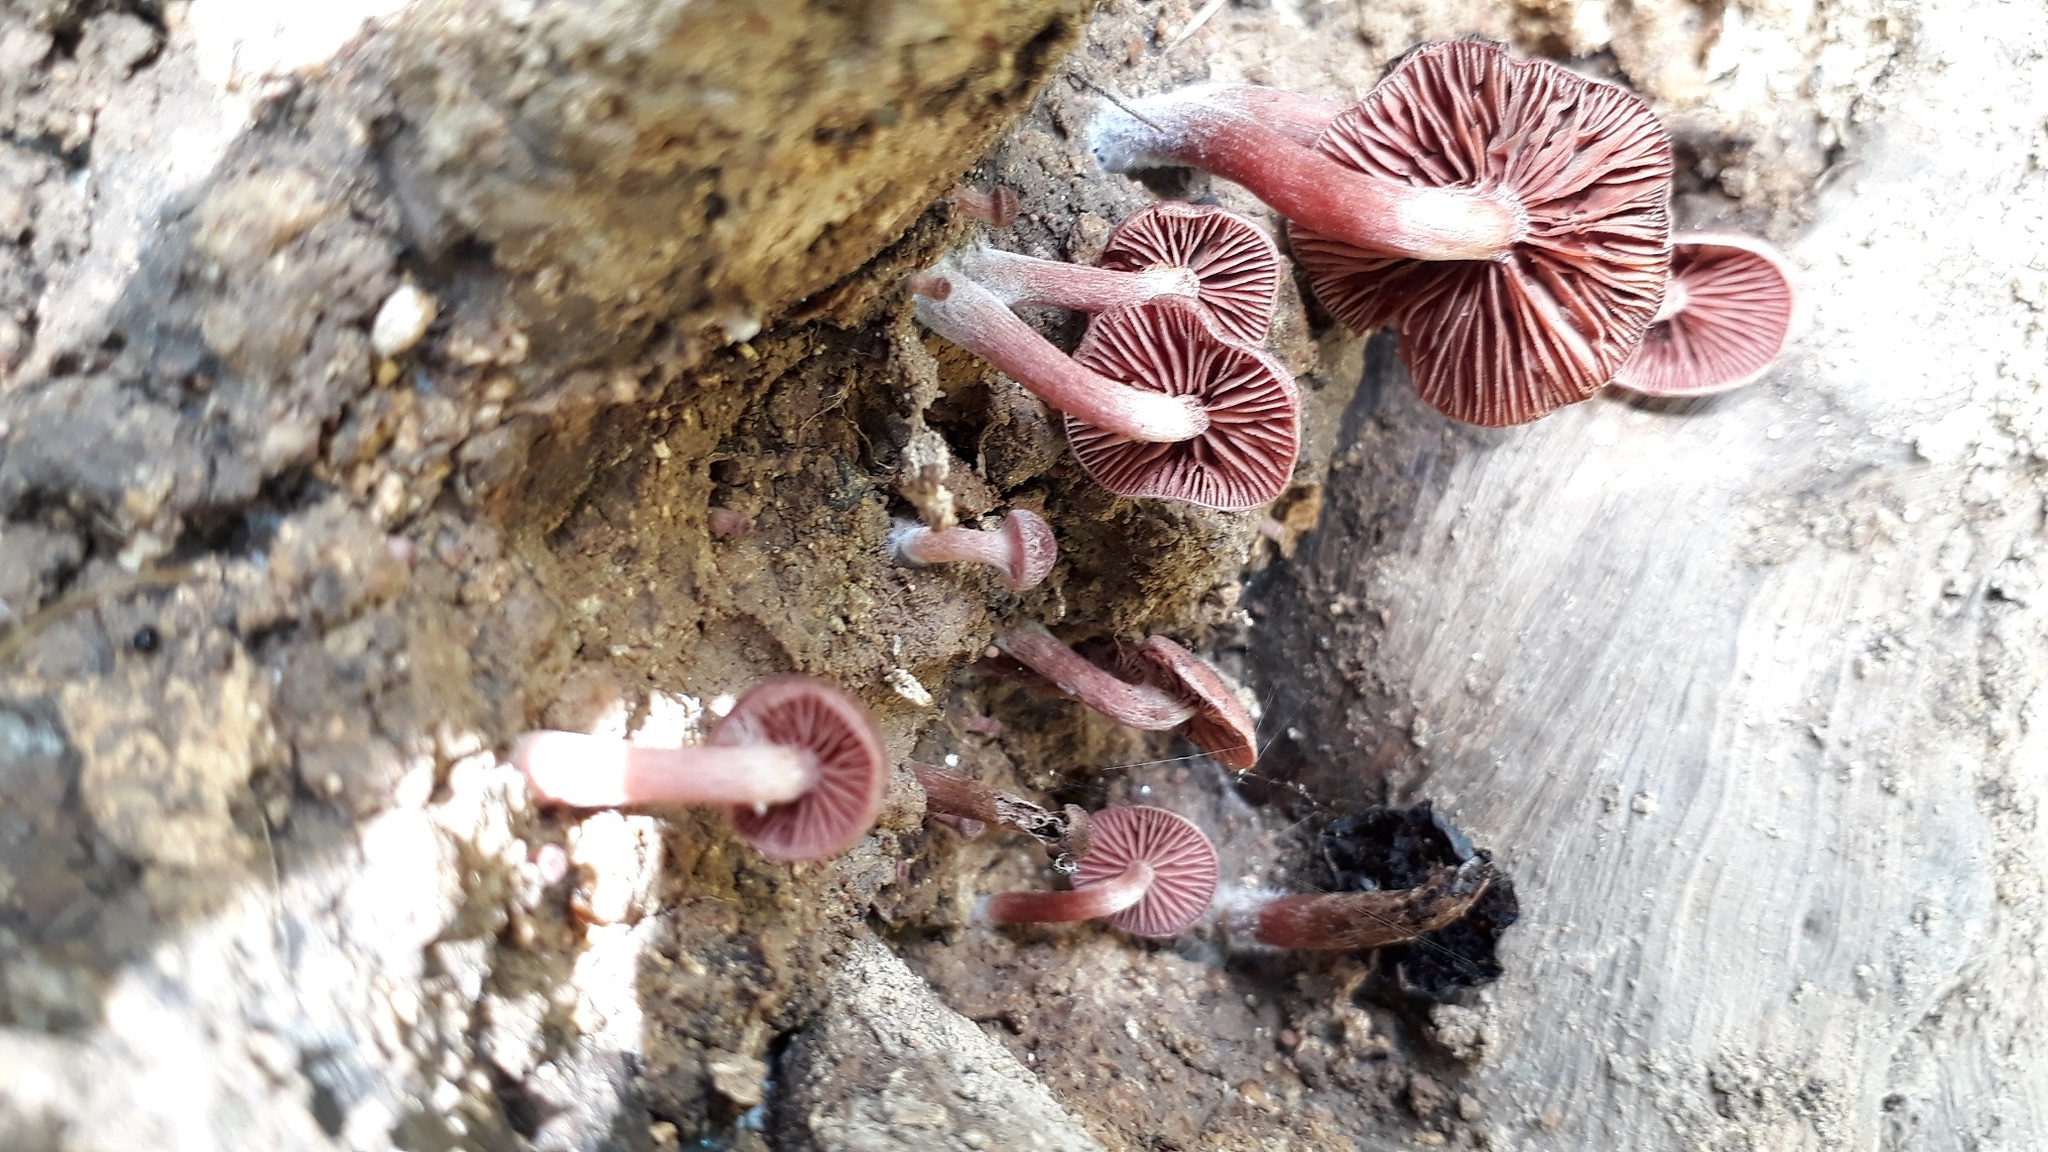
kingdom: Fungi
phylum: Basidiomycota
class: Agaricomycetes
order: Agaricales
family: Tubariaceae
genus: Tubaria
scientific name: Tubaria rufofulva
